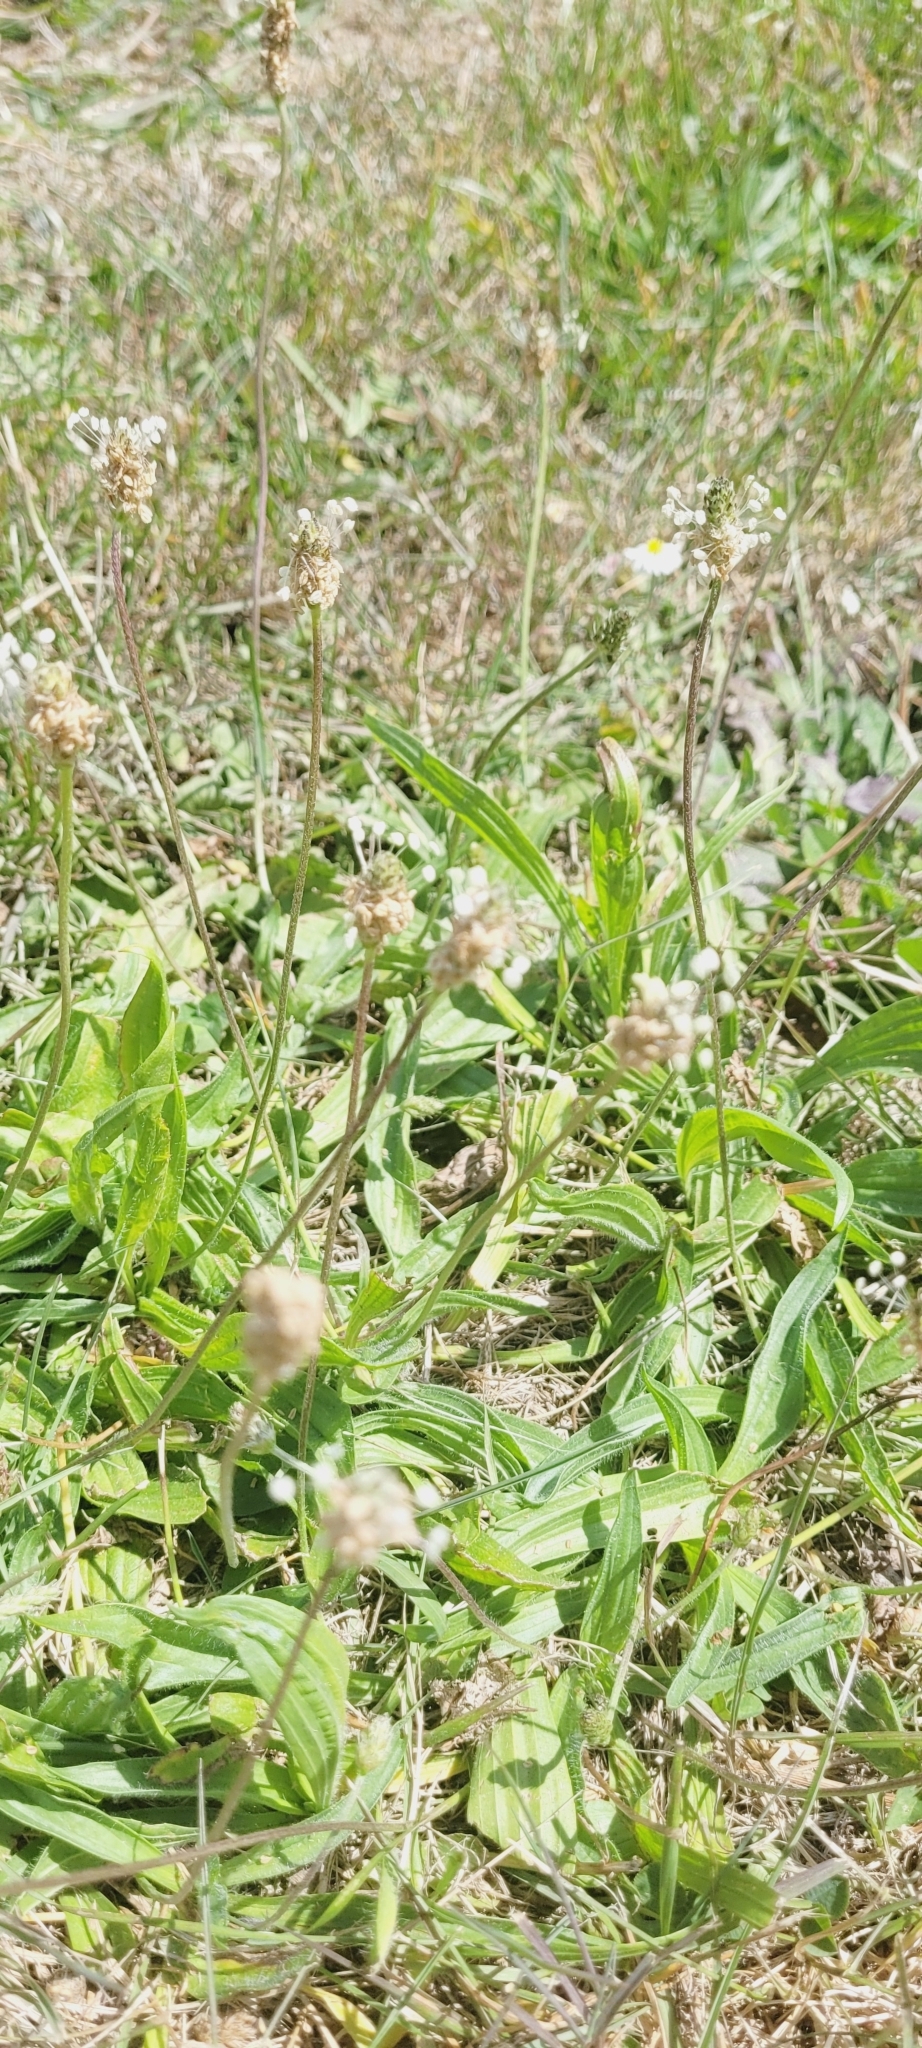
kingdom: Plantae
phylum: Tracheophyta
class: Magnoliopsida
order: Lamiales
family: Plantaginaceae
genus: Plantago
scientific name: Plantago lanceolata
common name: Ribwort plantain
